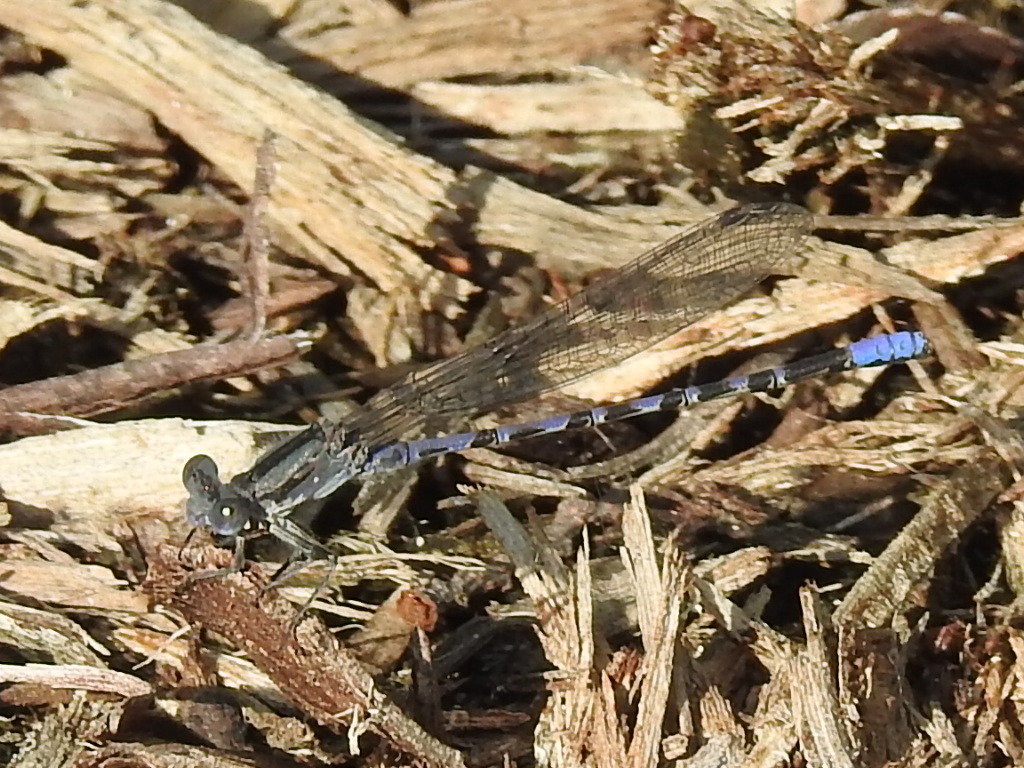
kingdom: Animalia
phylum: Arthropoda
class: Insecta
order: Odonata
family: Coenagrionidae
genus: Argia
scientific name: Argia immunda
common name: Kiowa dancer
